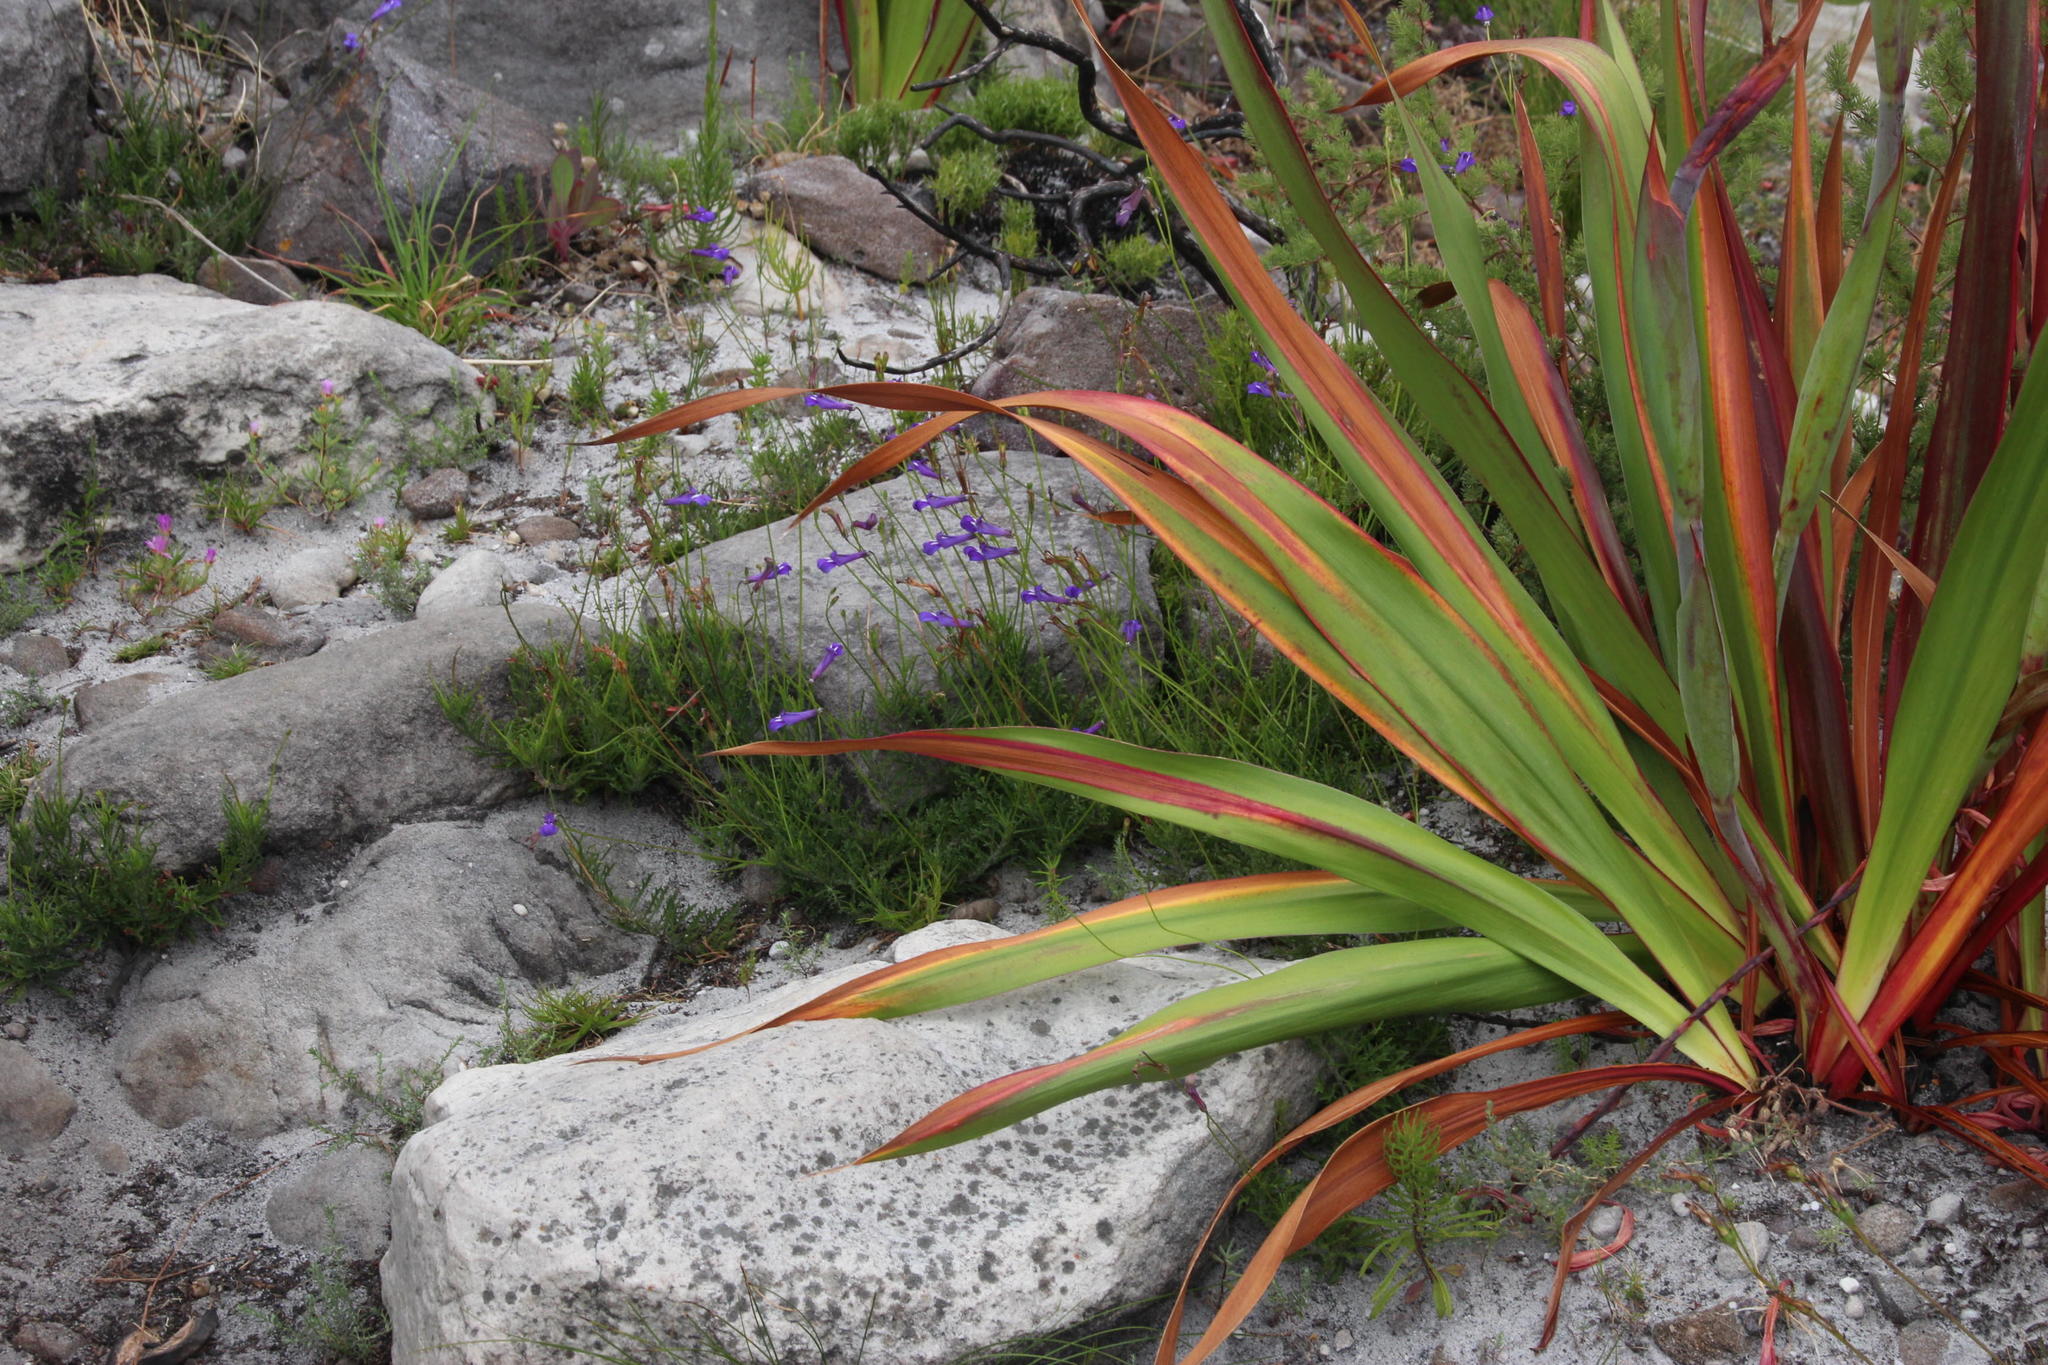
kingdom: Plantae
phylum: Tracheophyta
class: Magnoliopsida
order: Asterales
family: Campanulaceae
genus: Lobelia
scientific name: Lobelia coronopifolia
